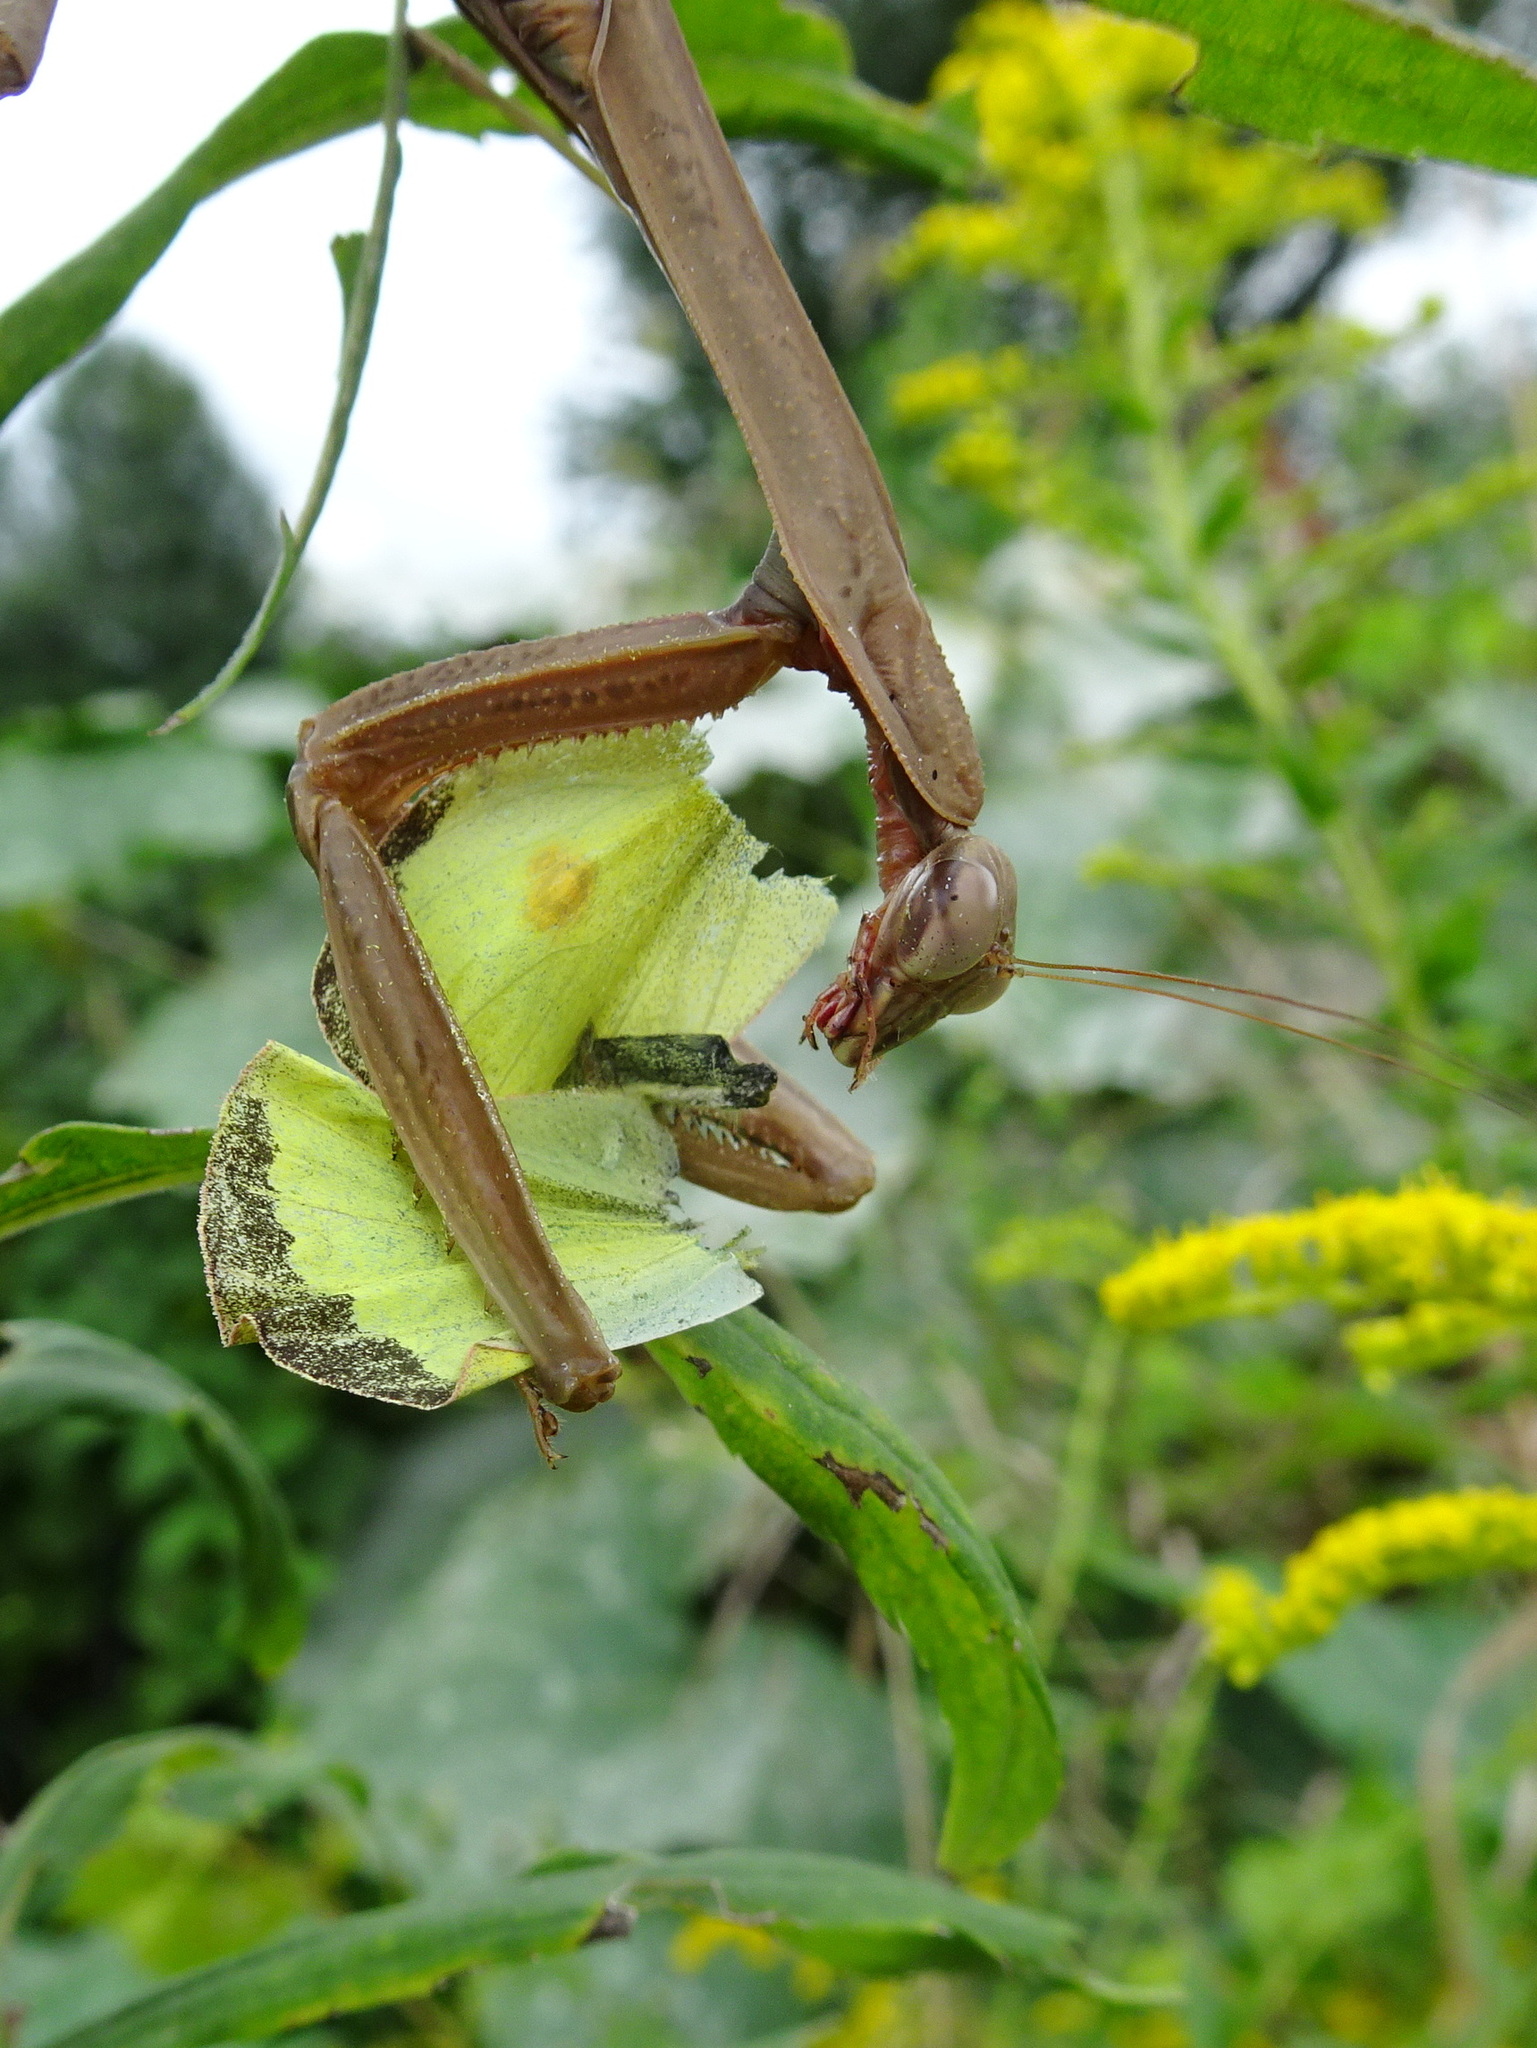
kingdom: Animalia
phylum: Arthropoda
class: Insecta
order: Mantodea
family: Mantidae
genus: Tenodera
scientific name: Tenodera sinensis
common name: Chinese mantis
